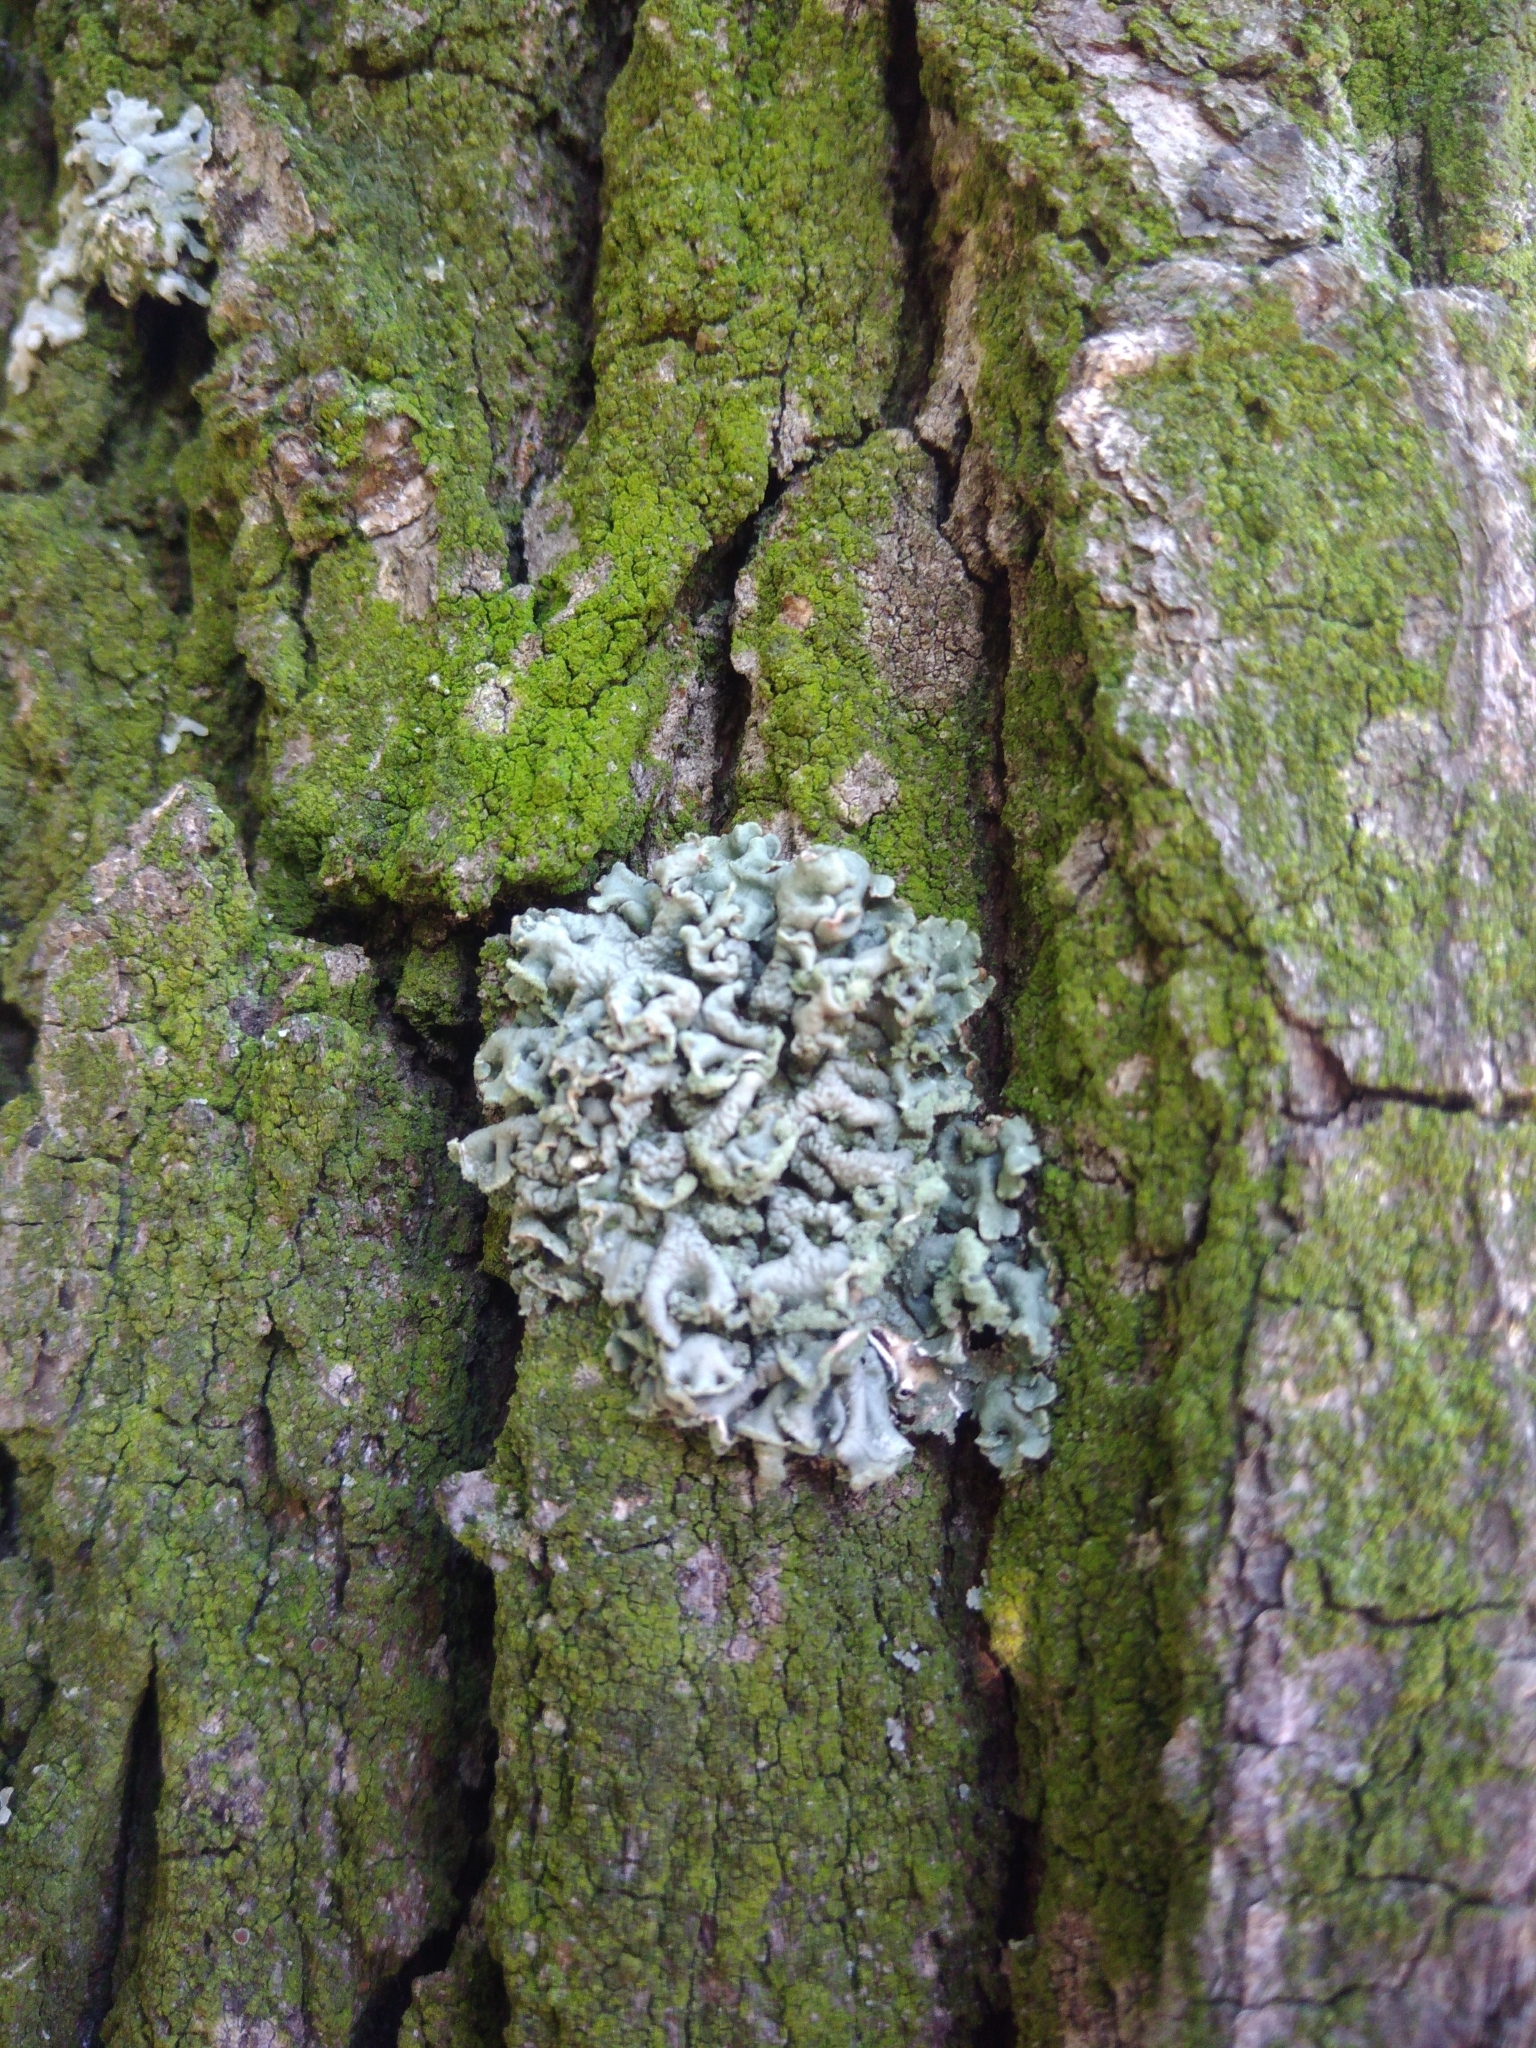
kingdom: Fungi
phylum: Ascomycota
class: Lecanoromycetes
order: Lecanorales
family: Parmeliaceae
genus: Hypogymnia
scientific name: Hypogymnia physodes
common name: Dark crottle
